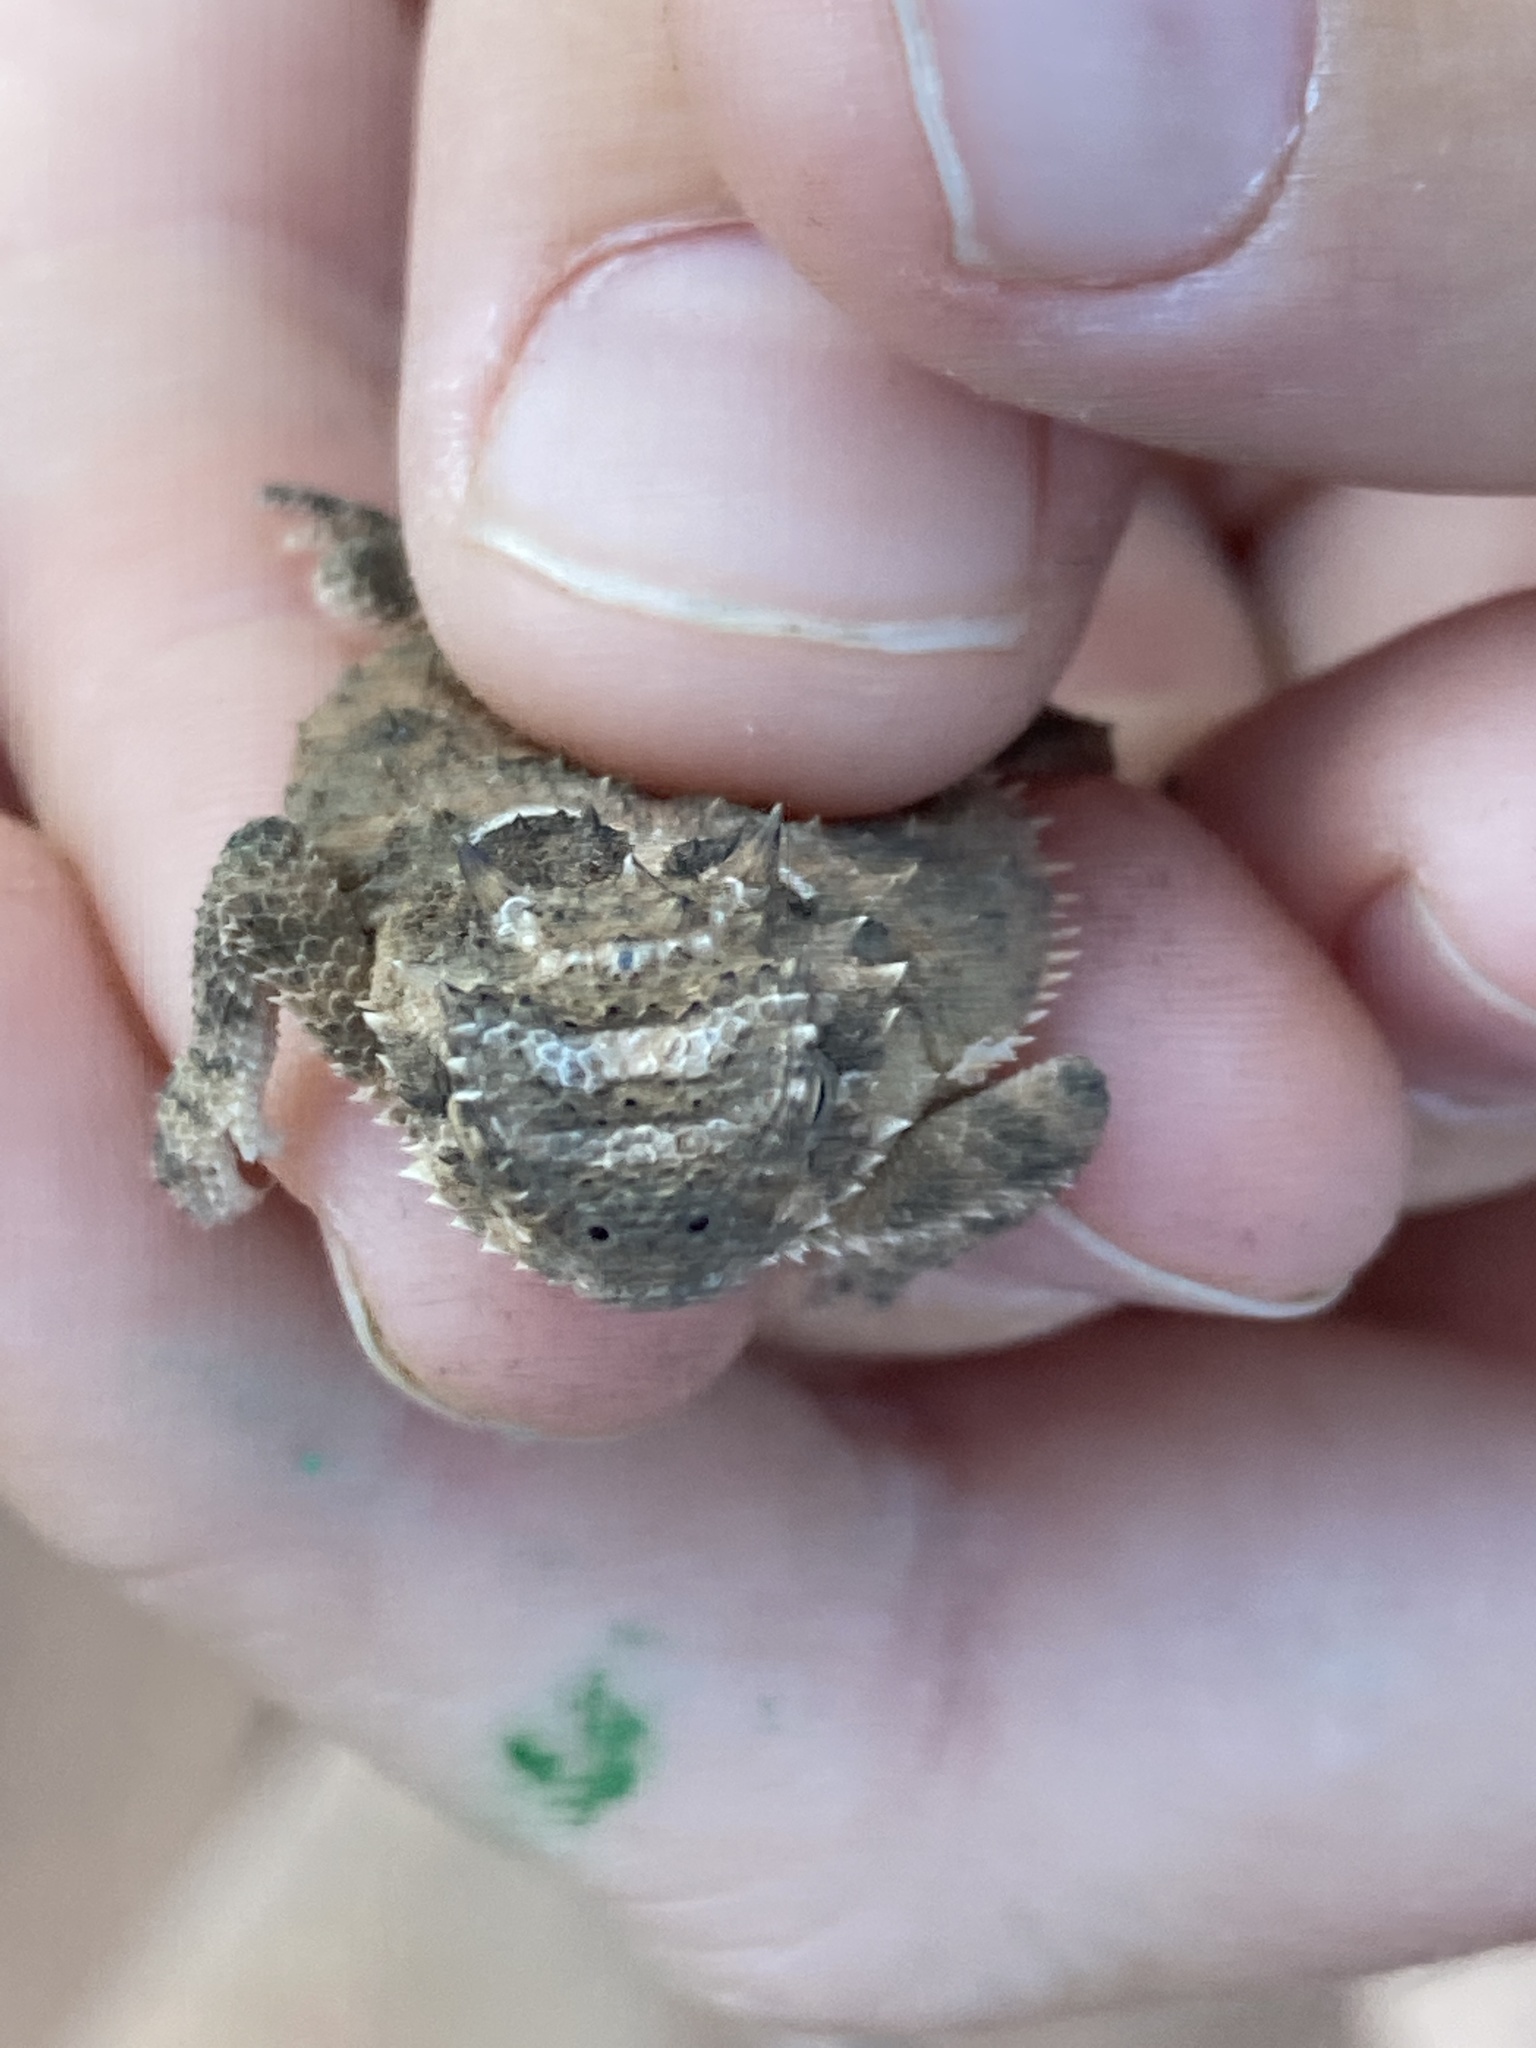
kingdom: Animalia
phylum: Chordata
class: Squamata
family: Phrynosomatidae
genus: Phrynosoma
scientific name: Phrynosoma cornutum
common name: Texas horned lizard
